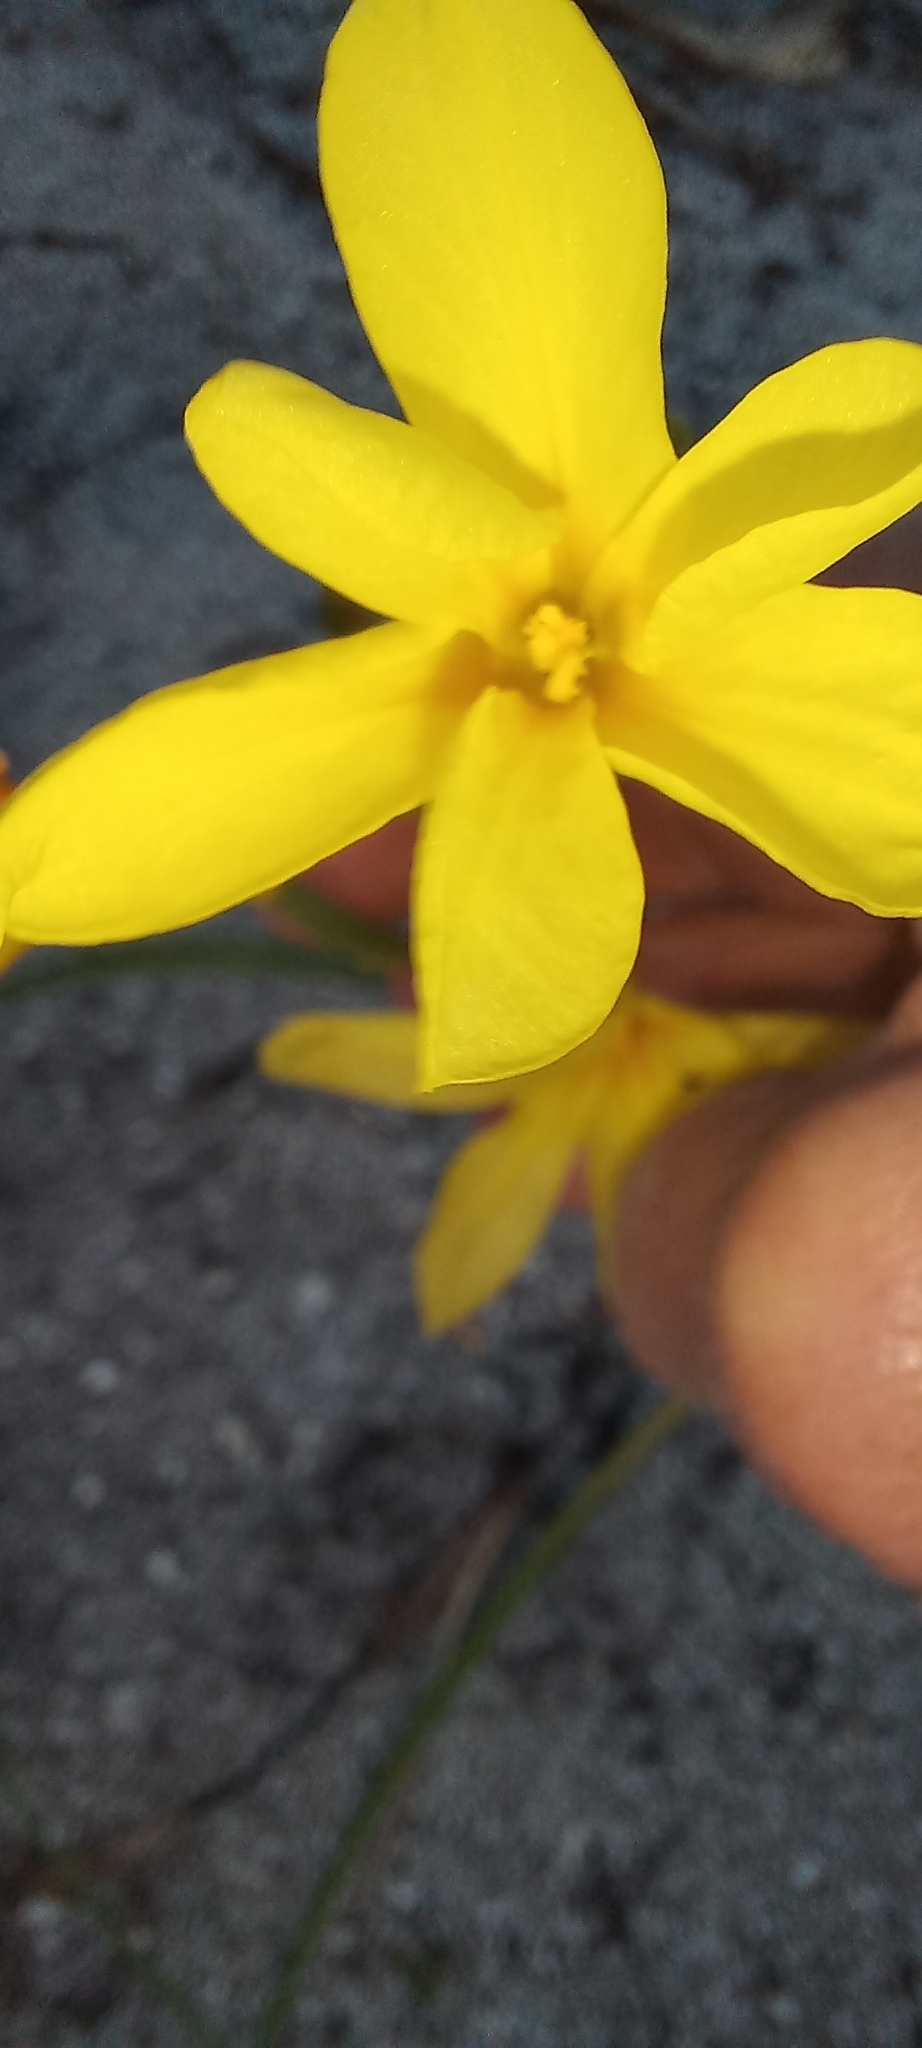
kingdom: Plantae
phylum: Tracheophyta
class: Liliopsida
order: Asparagales
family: Iridaceae
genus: Moraea
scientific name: Moraea collina
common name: Cape-tulip
